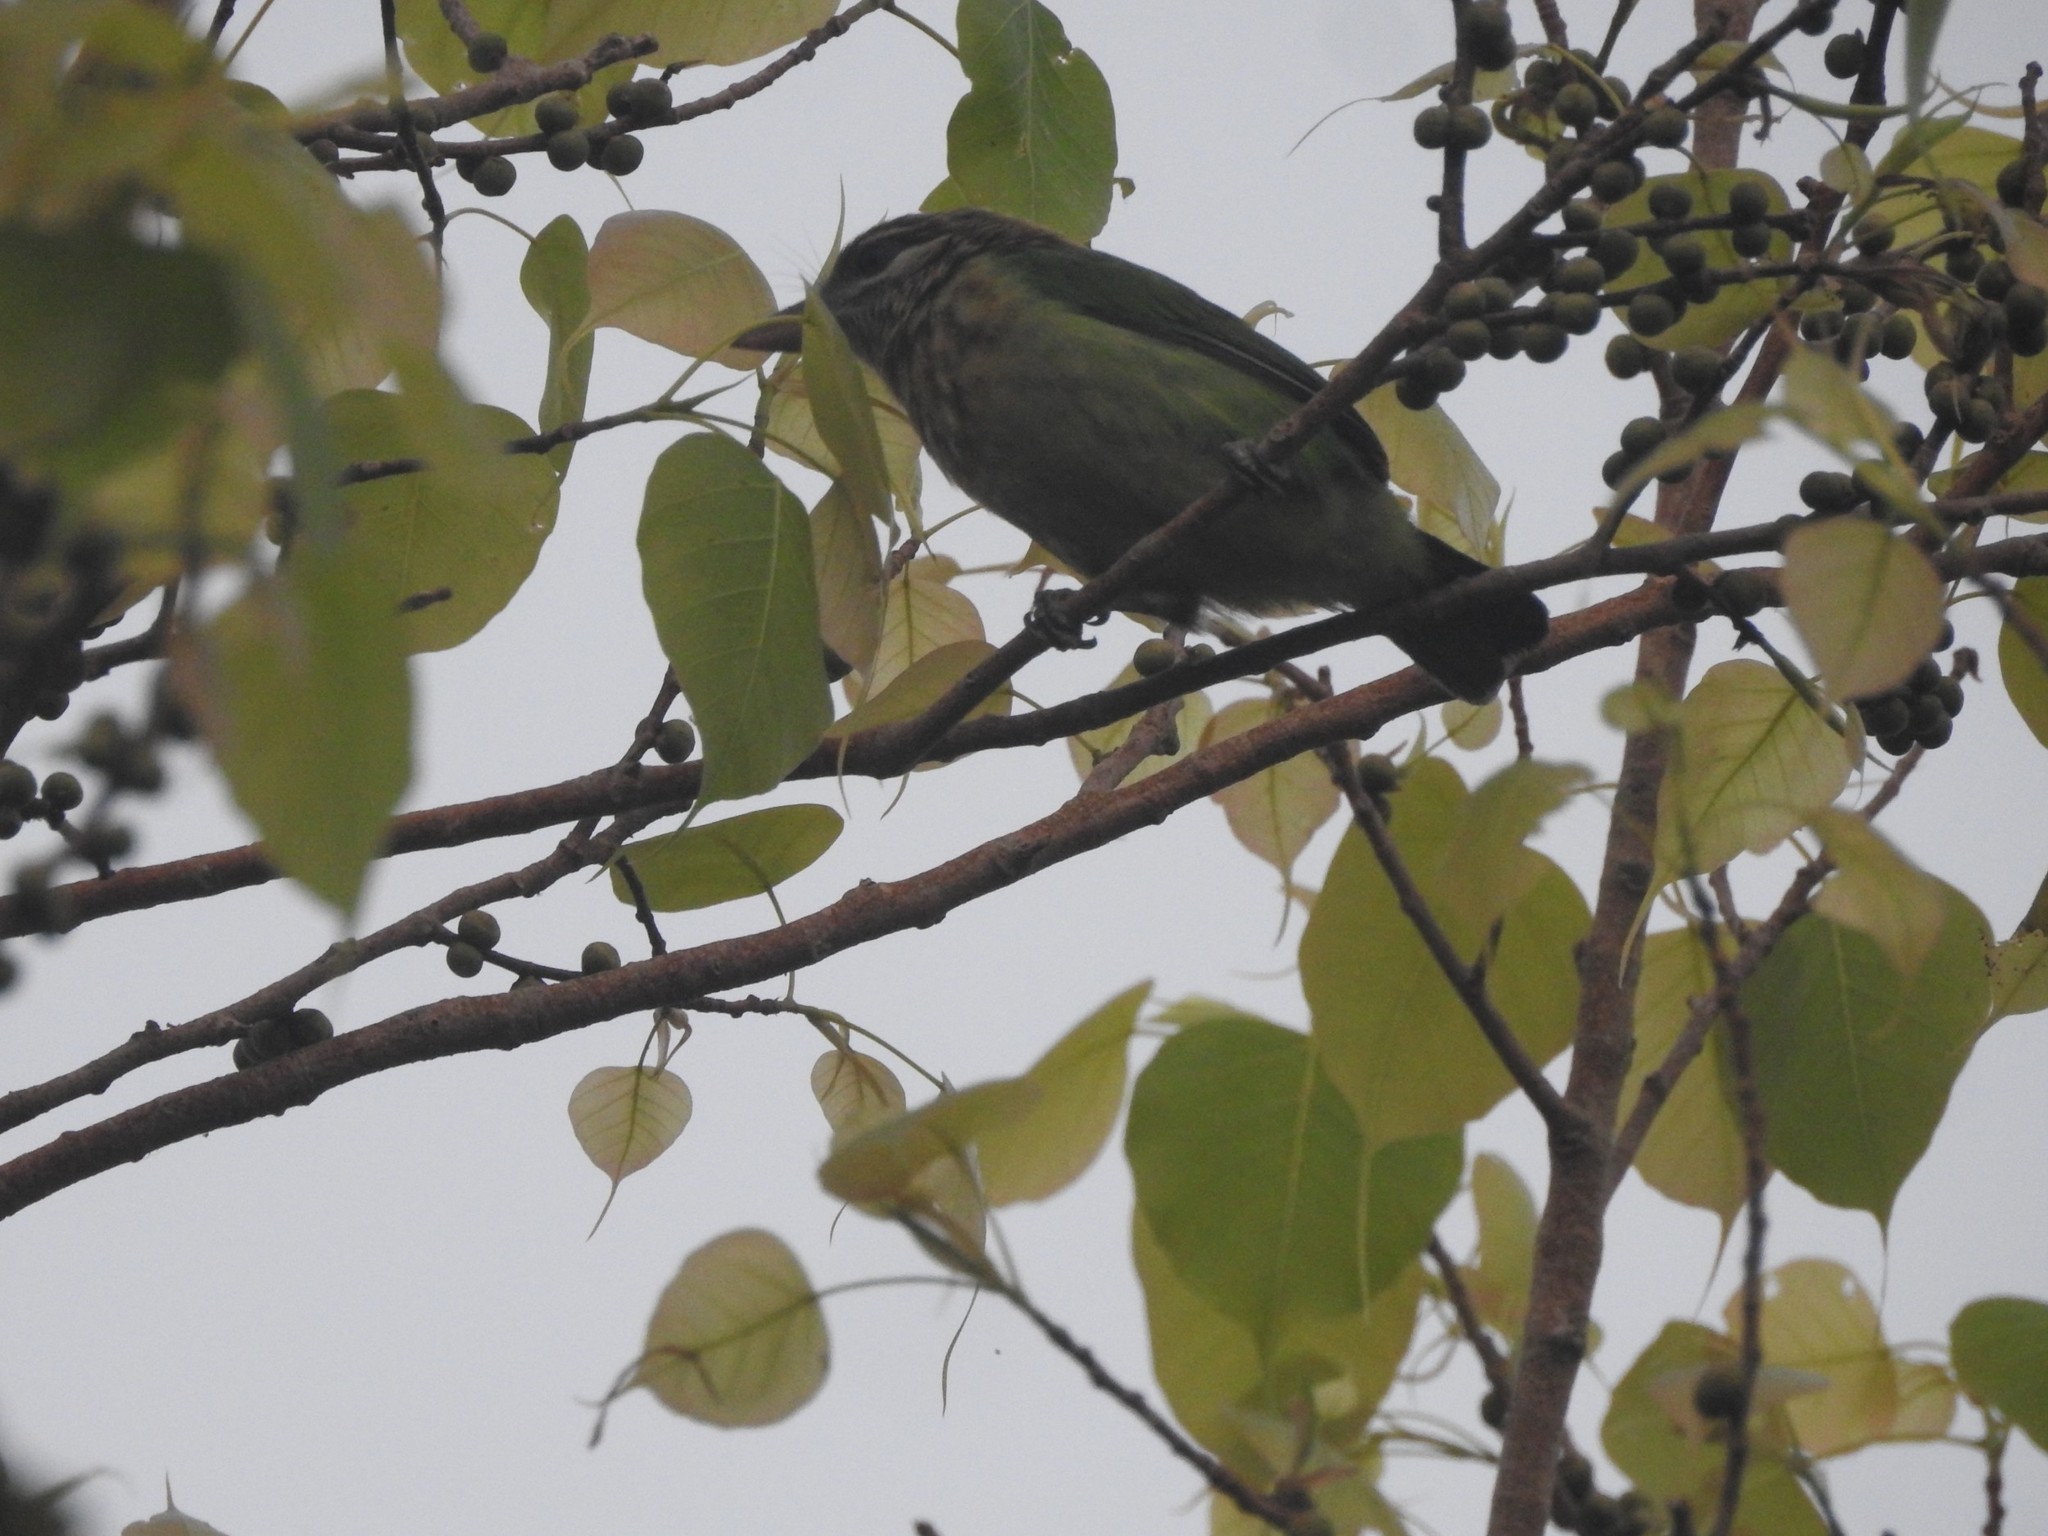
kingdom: Animalia
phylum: Chordata
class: Aves
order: Piciformes
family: Megalaimidae
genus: Psilopogon
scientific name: Psilopogon viridis
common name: White-cheeked barbet
